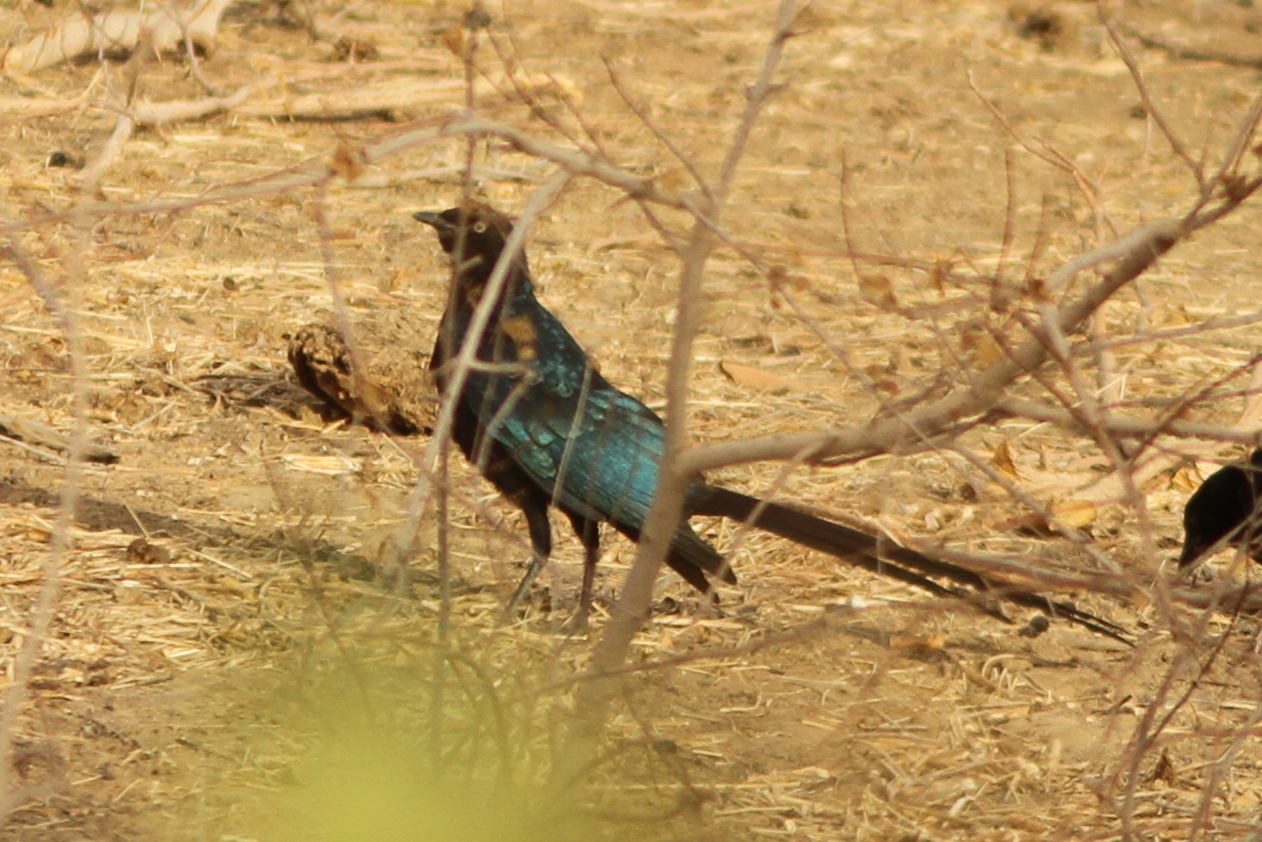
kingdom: Animalia
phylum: Chordata
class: Aves
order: Passeriformes
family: Sturnidae
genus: Lamprotornis
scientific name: Lamprotornis caudatus
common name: Long-tailed glossy starling
